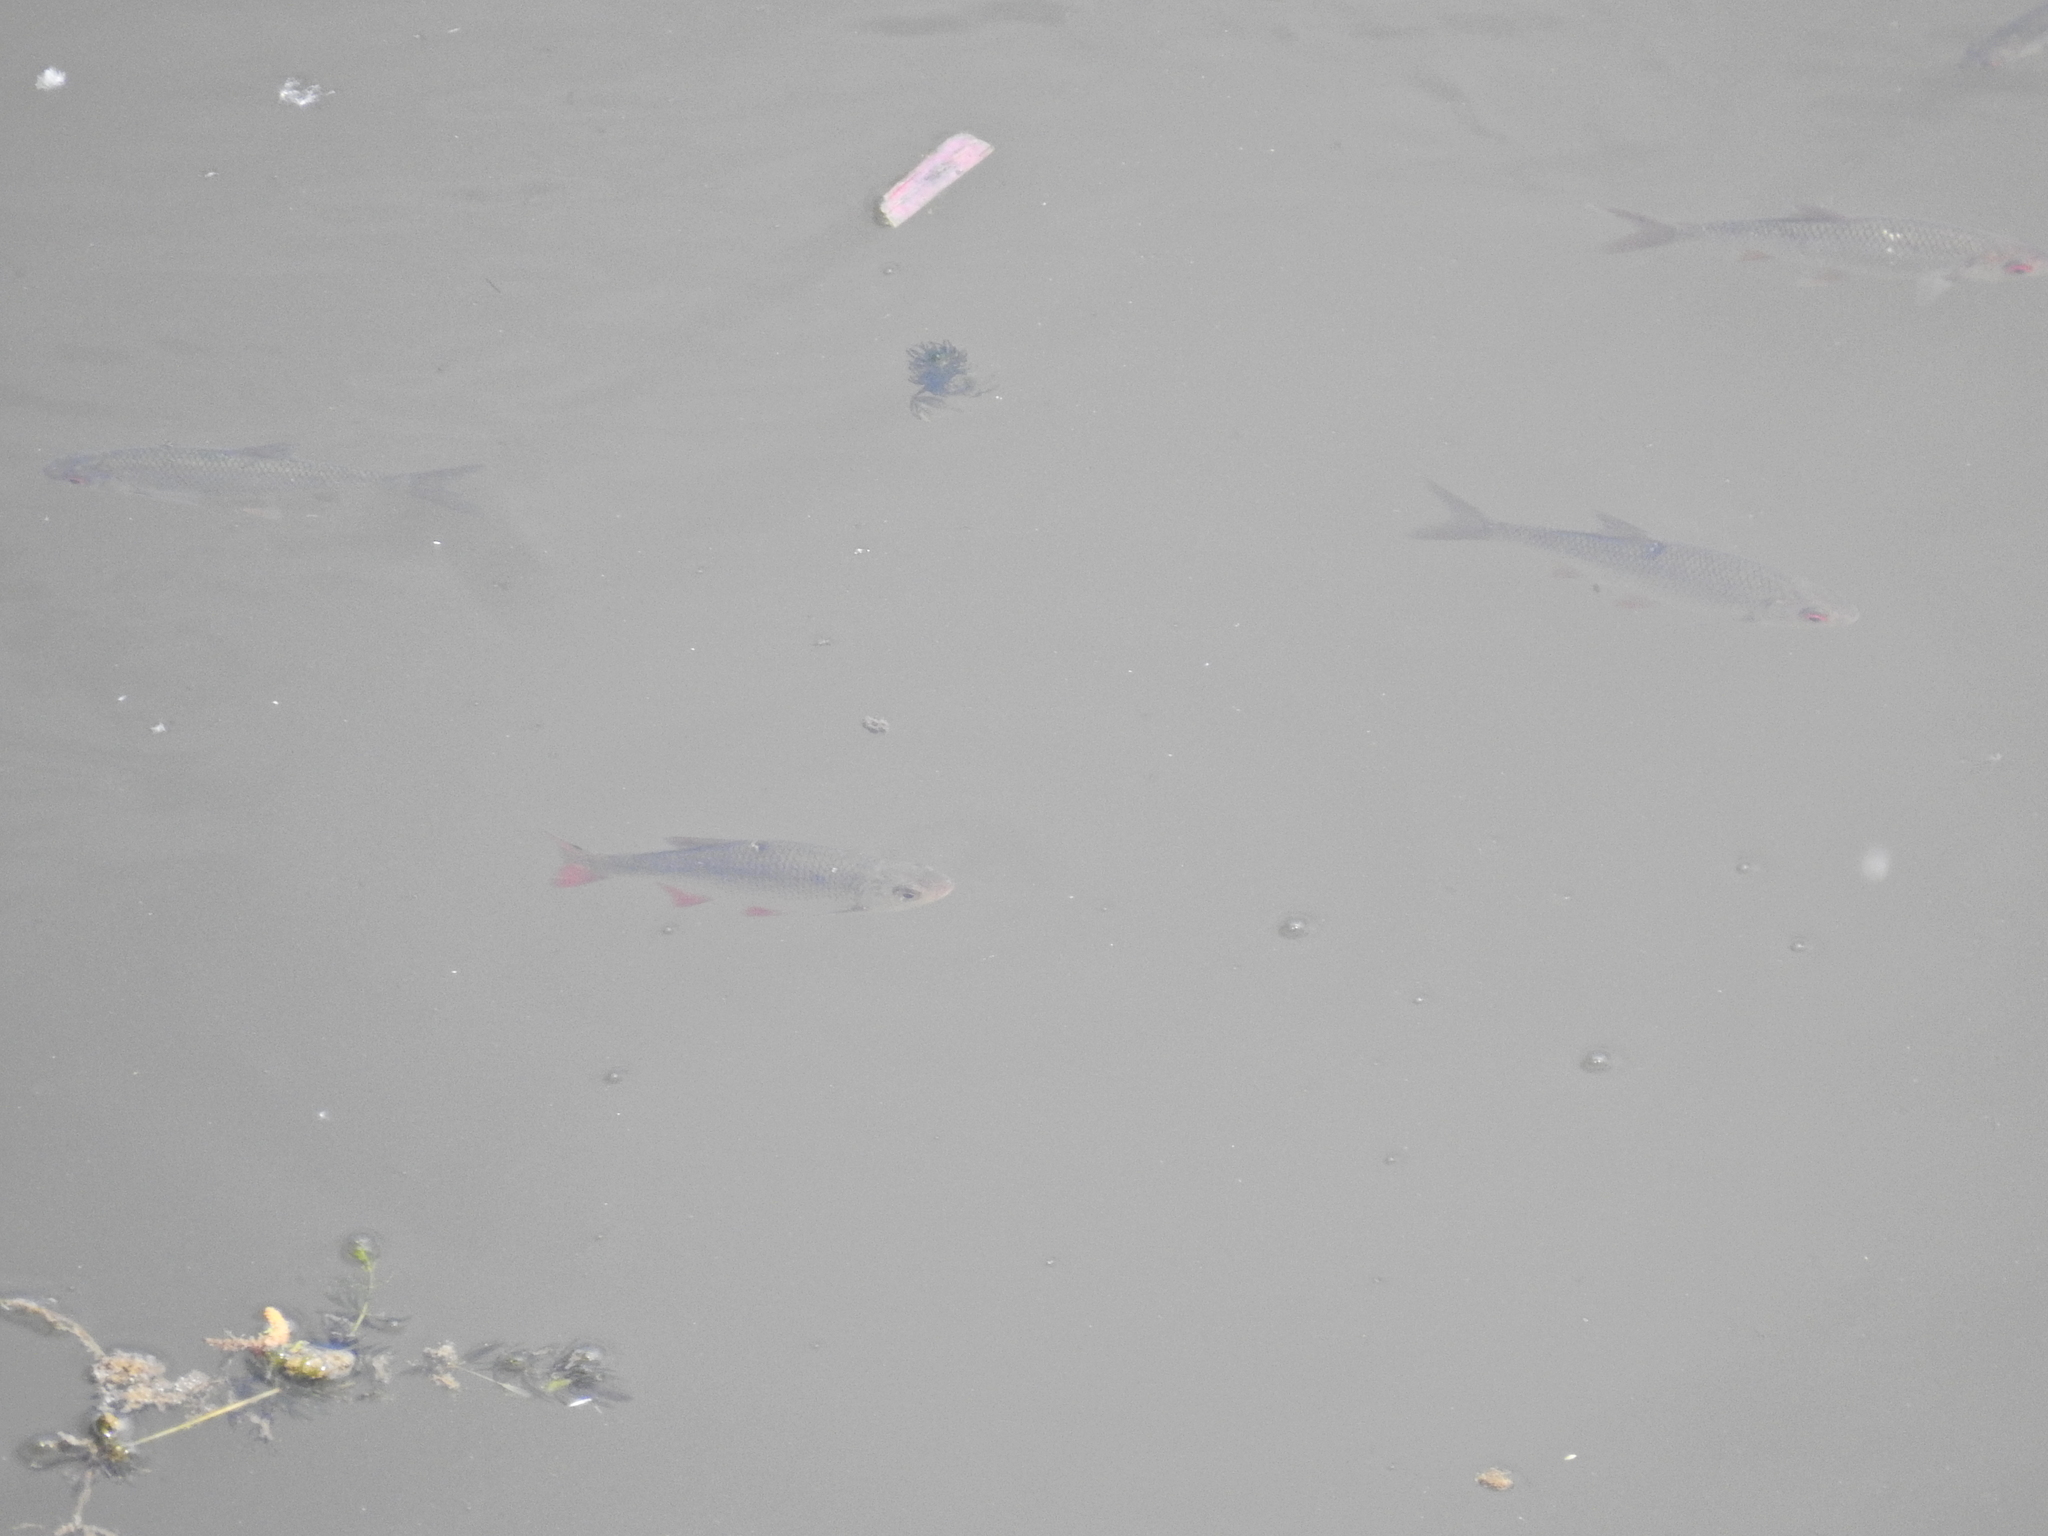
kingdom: Animalia
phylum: Chordata
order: Cypriniformes
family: Cyprinidae
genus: Scardinius
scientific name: Scardinius erythrophthalmus
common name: Rudd
